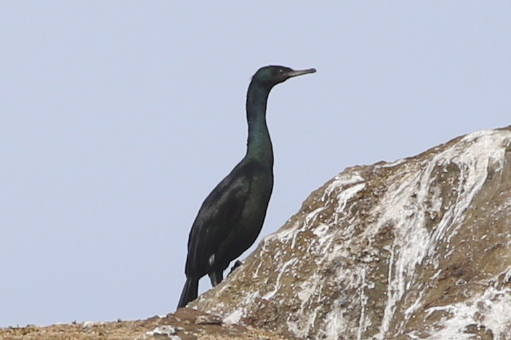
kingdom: Animalia
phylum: Chordata
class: Aves
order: Suliformes
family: Phalacrocoracidae
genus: Phalacrocorax
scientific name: Phalacrocorax pelagicus
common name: Pelagic cormorant
